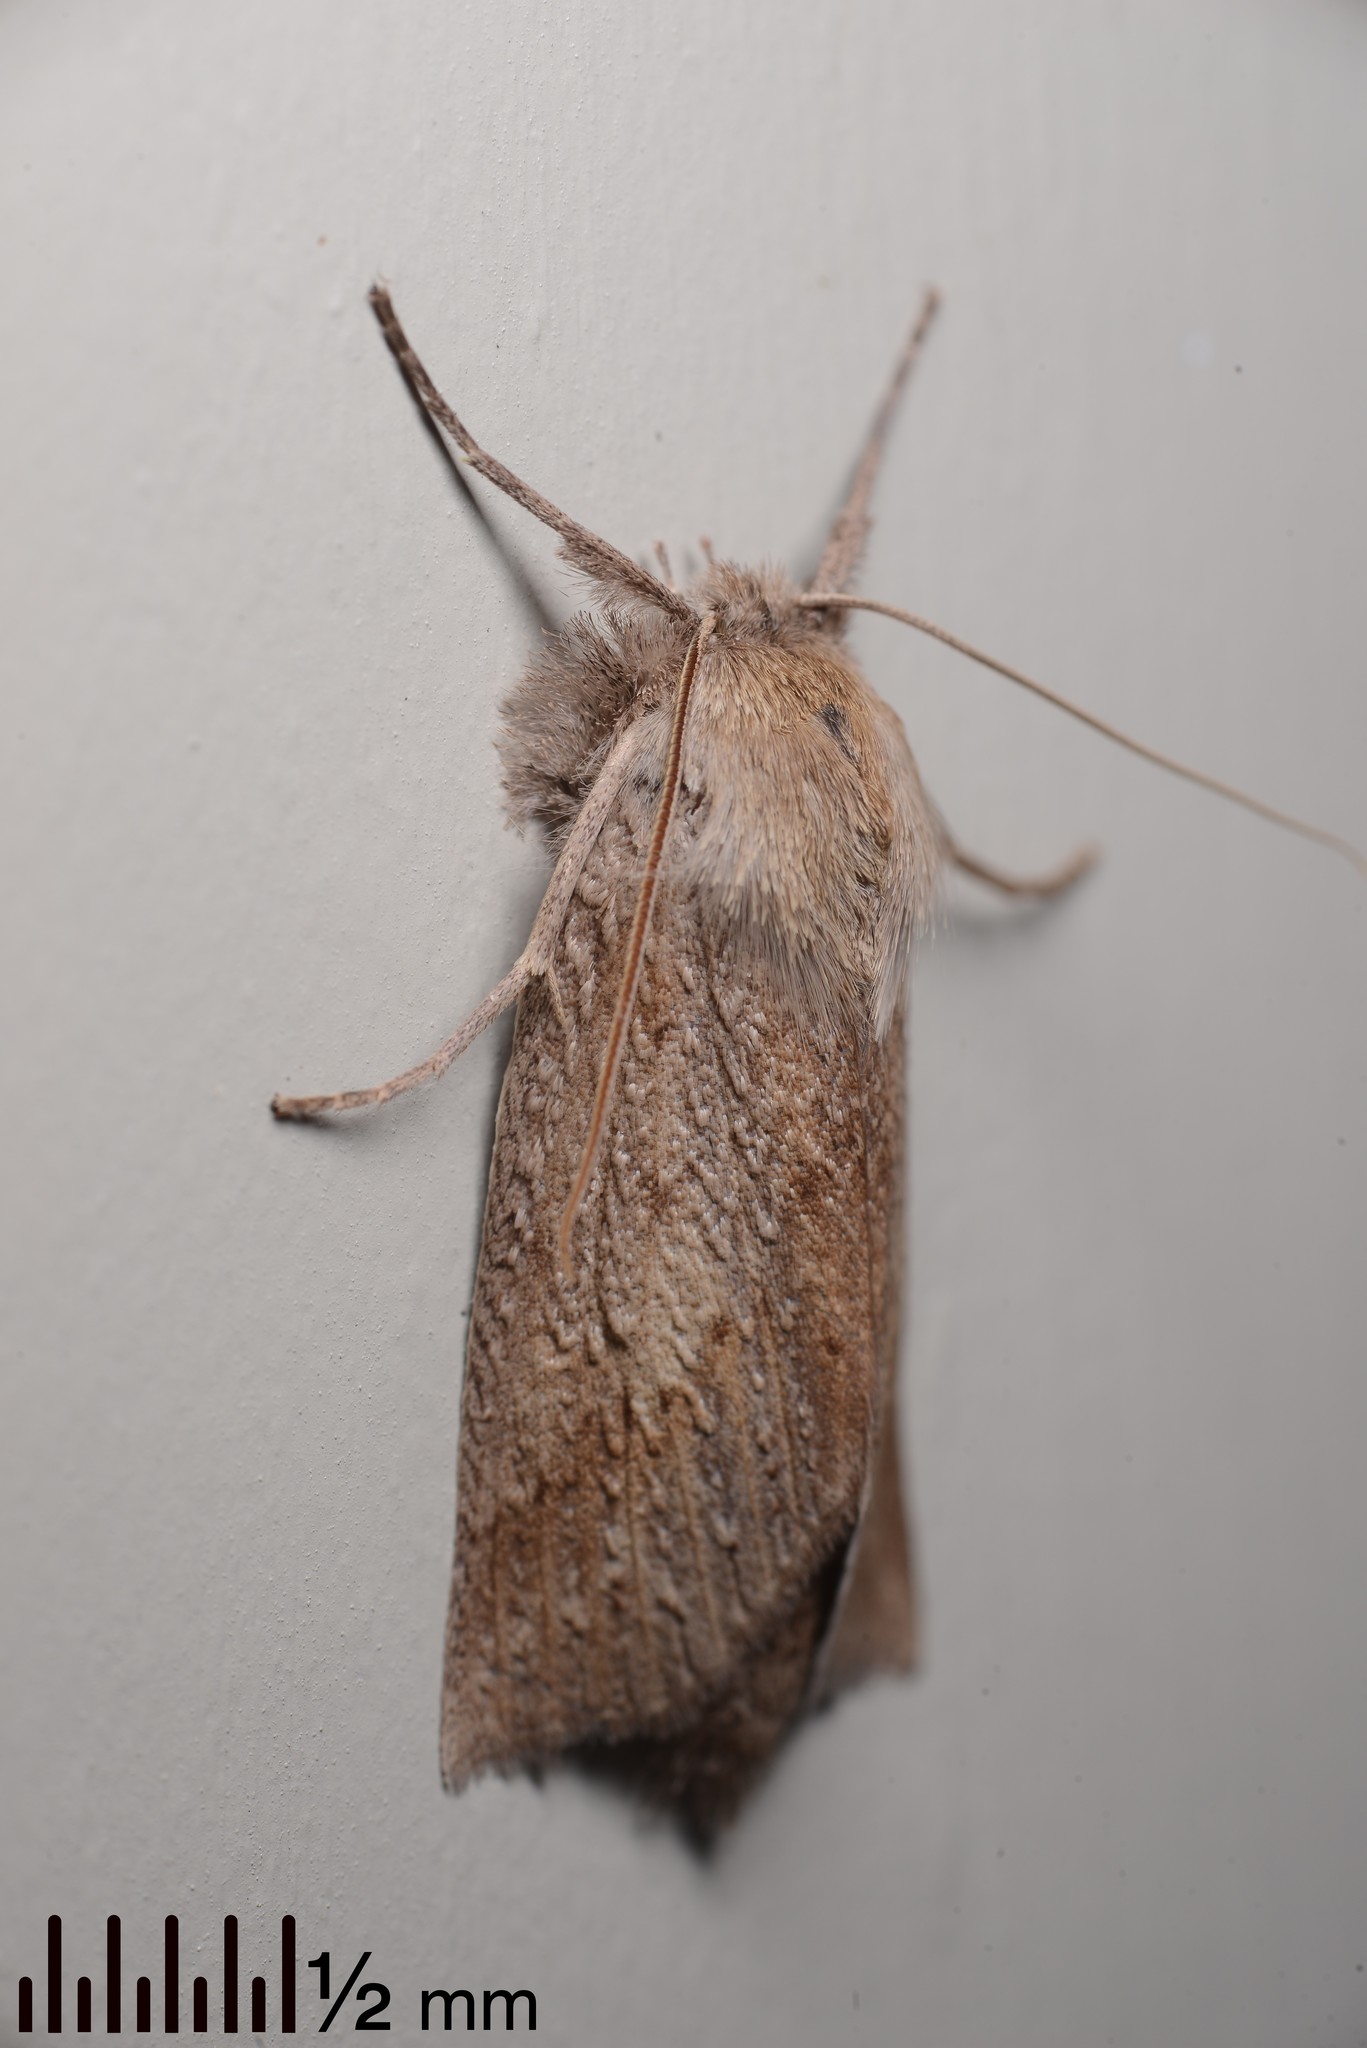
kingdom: Animalia
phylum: Arthropoda
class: Insecta
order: Lepidoptera
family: Geometridae
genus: Declana
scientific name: Declana leptomera
